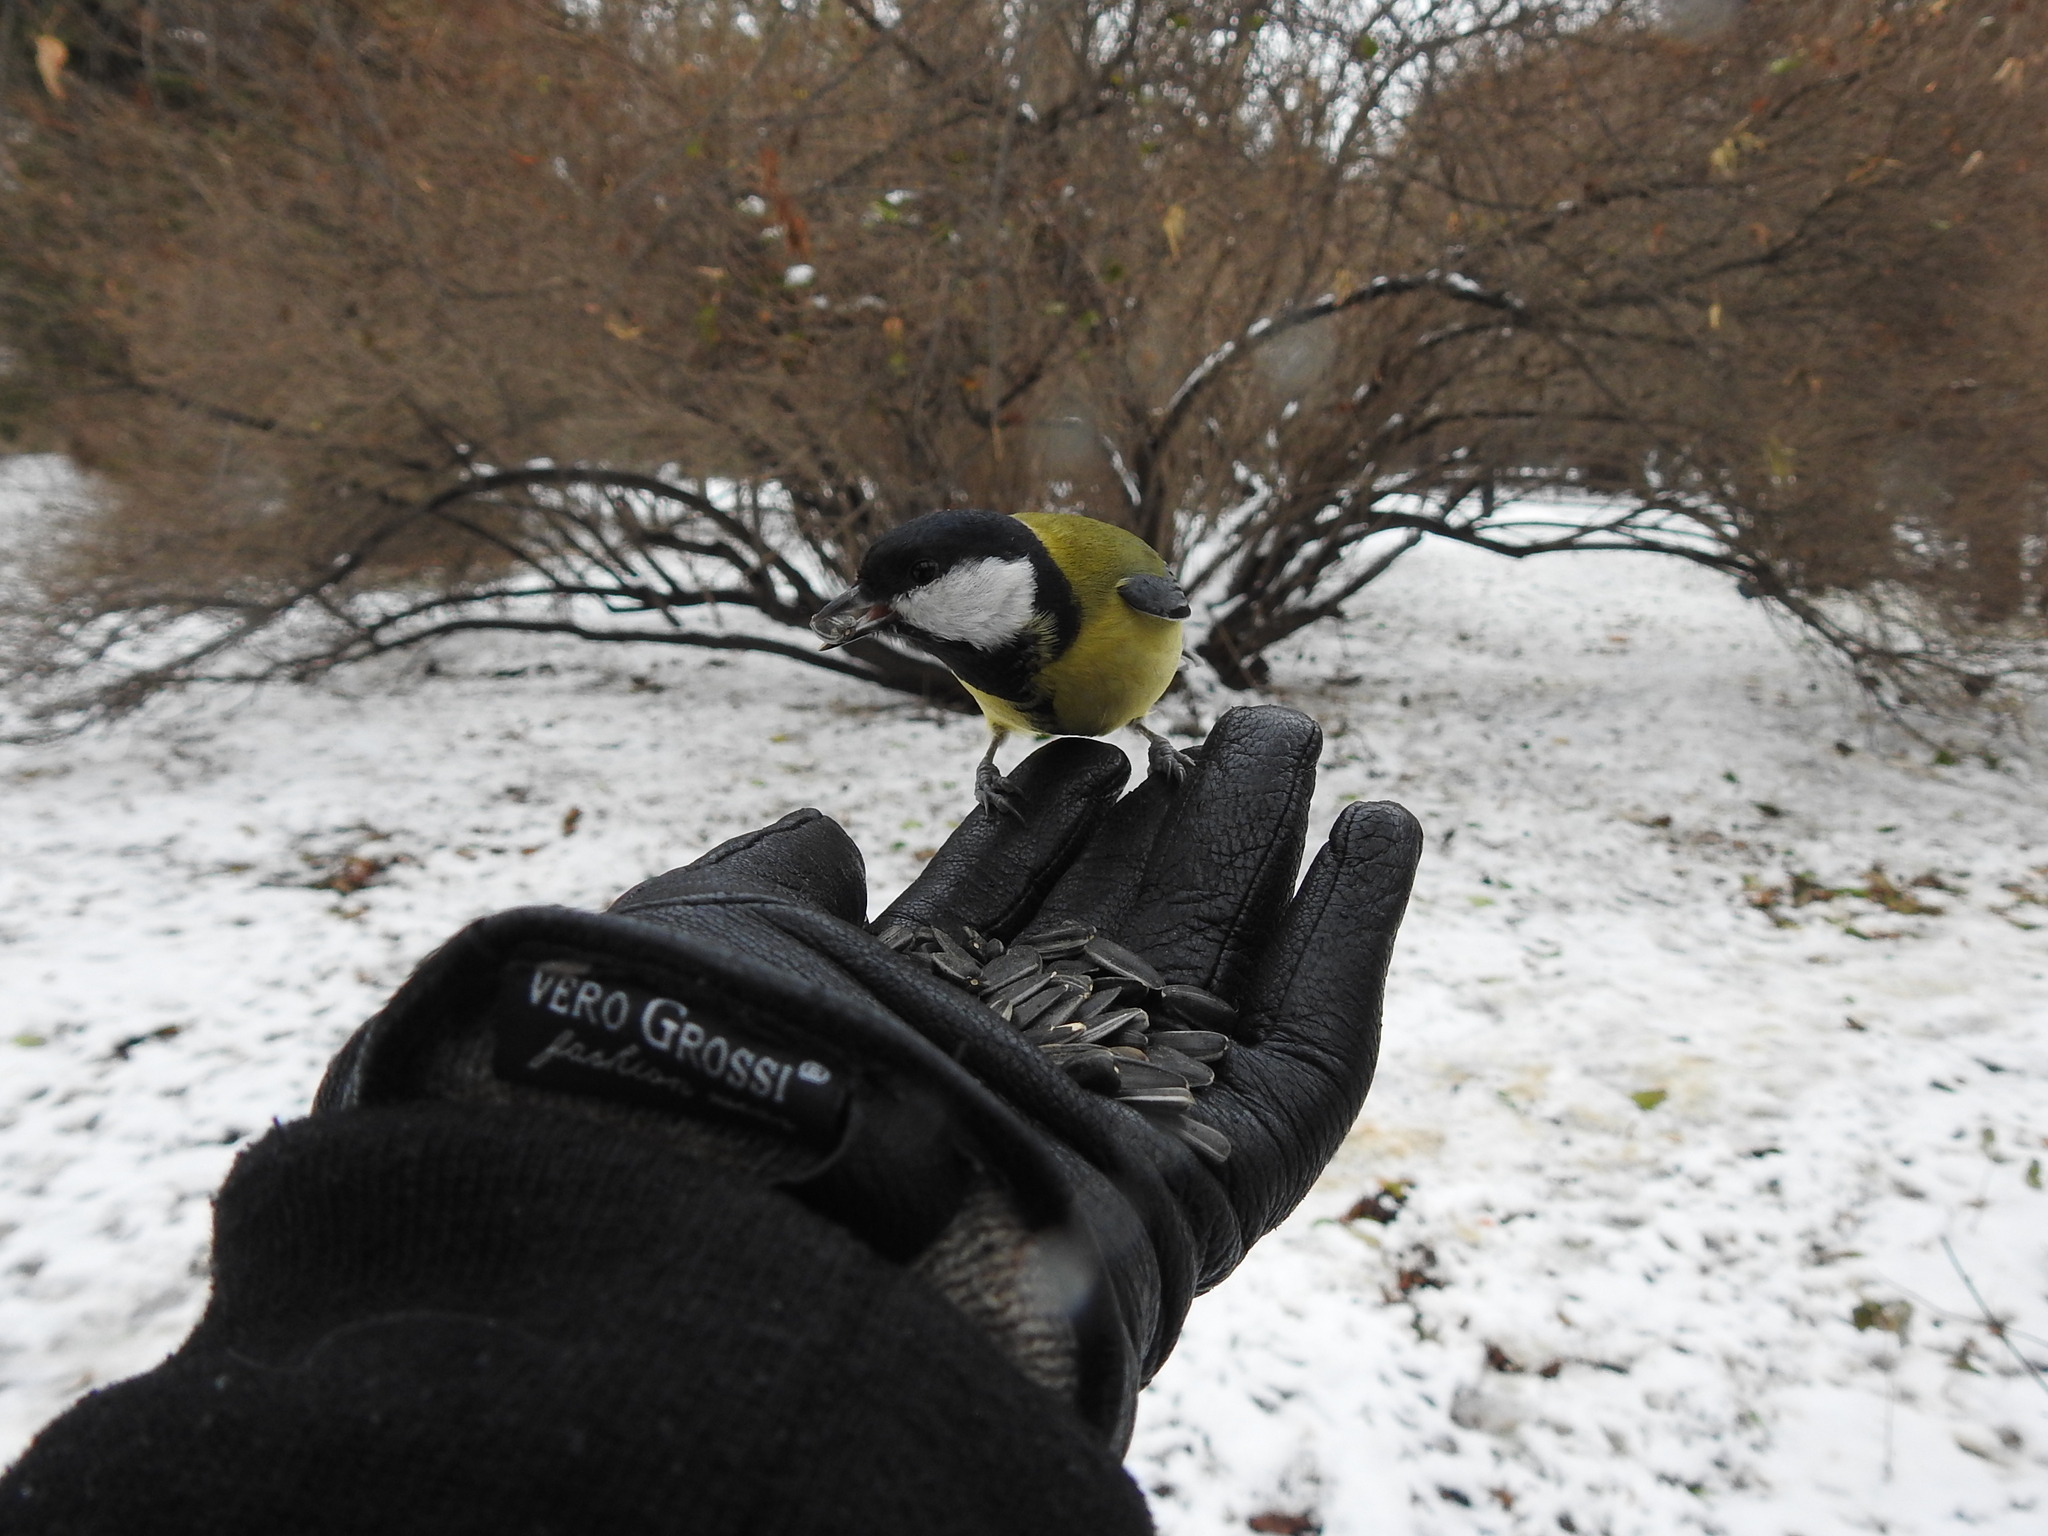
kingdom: Animalia
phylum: Chordata
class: Aves
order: Passeriformes
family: Paridae
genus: Parus
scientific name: Parus major
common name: Great tit
